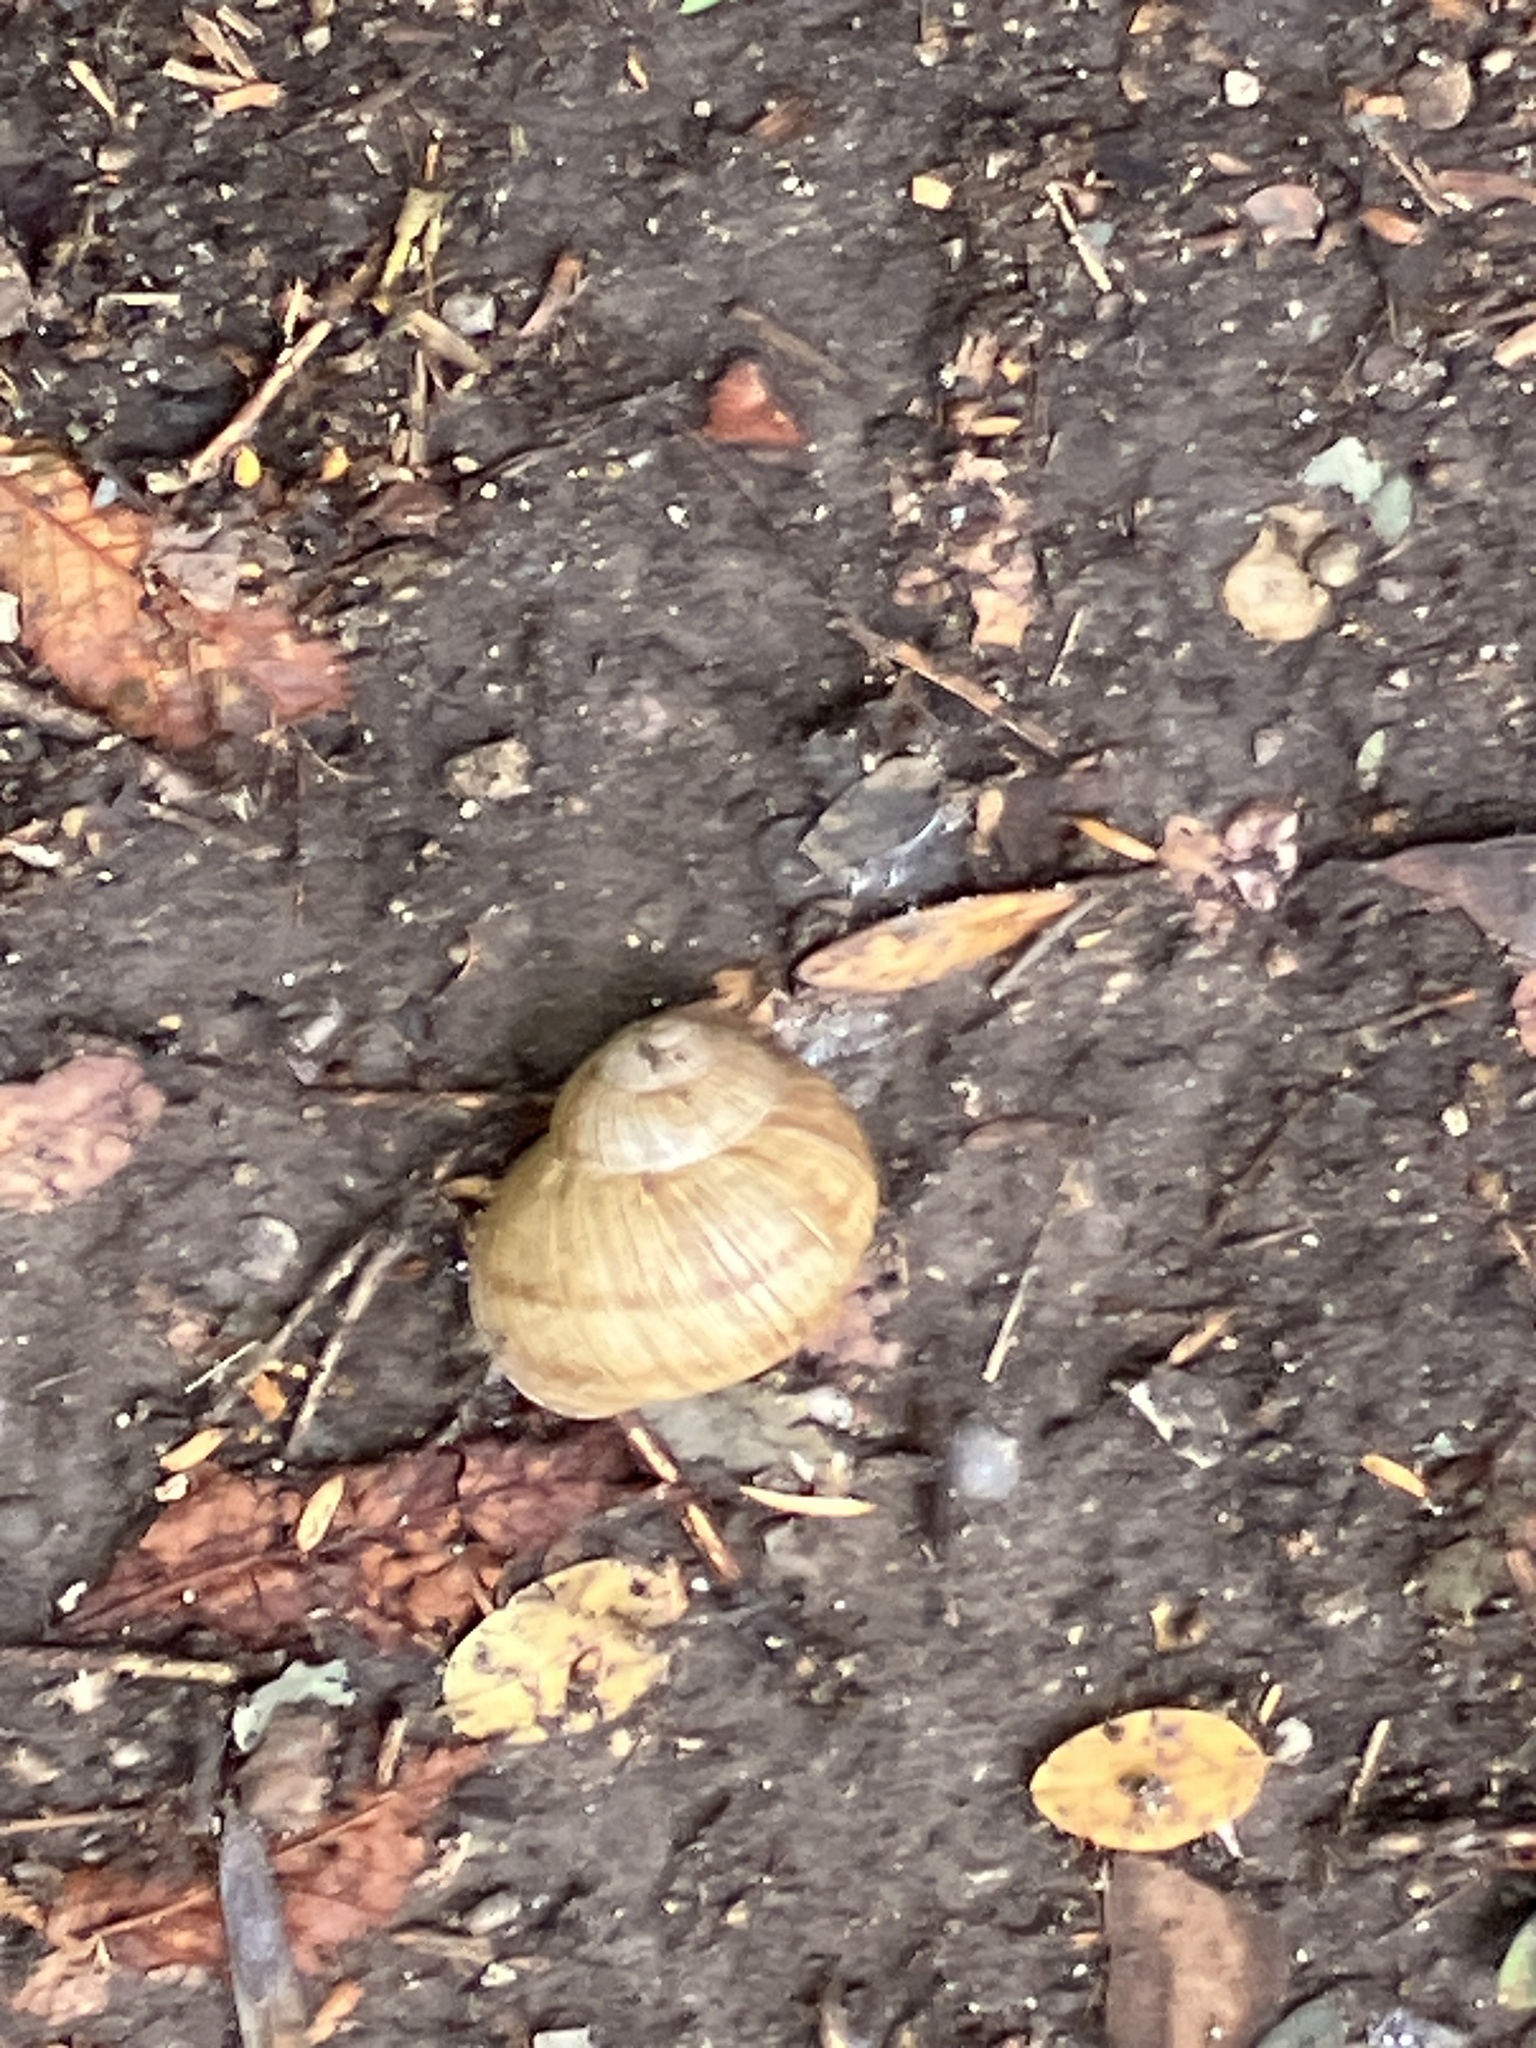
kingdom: Animalia
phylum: Mollusca
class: Gastropoda
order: Stylommatophora
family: Helicidae
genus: Helix
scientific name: Helix pomatia
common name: Roman snail
